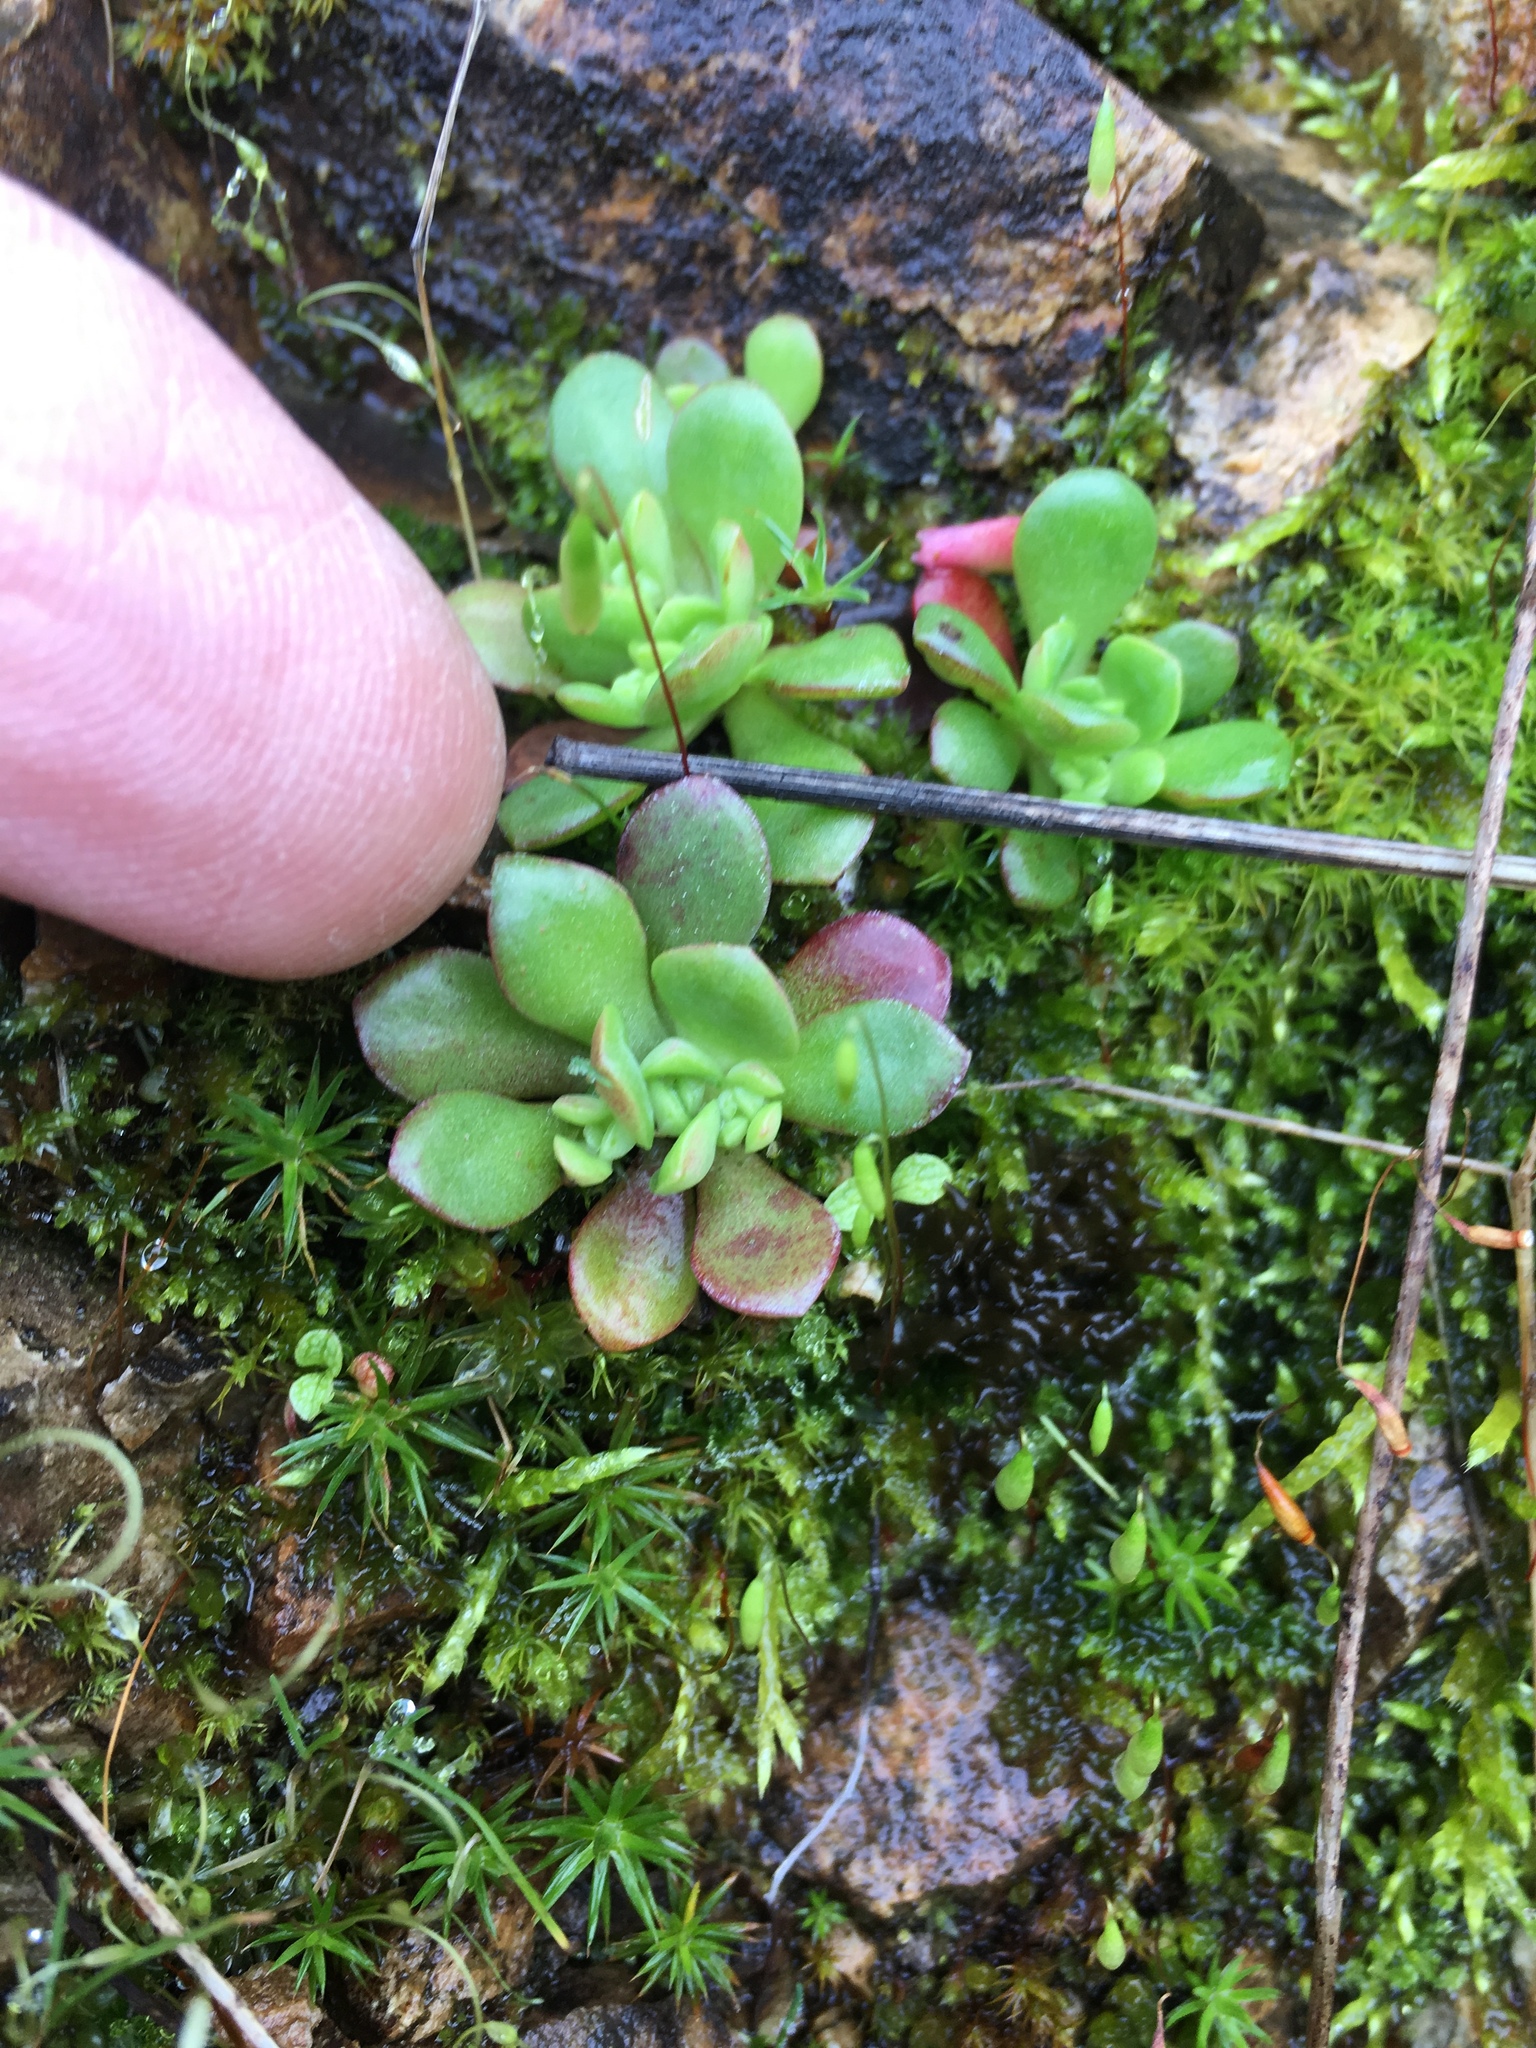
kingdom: Plantae
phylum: Tracheophyta
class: Magnoliopsida
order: Saxifragales
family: Crassulaceae
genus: Sedum
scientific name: Sedum spathulifolium
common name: Colorado stonecrop
